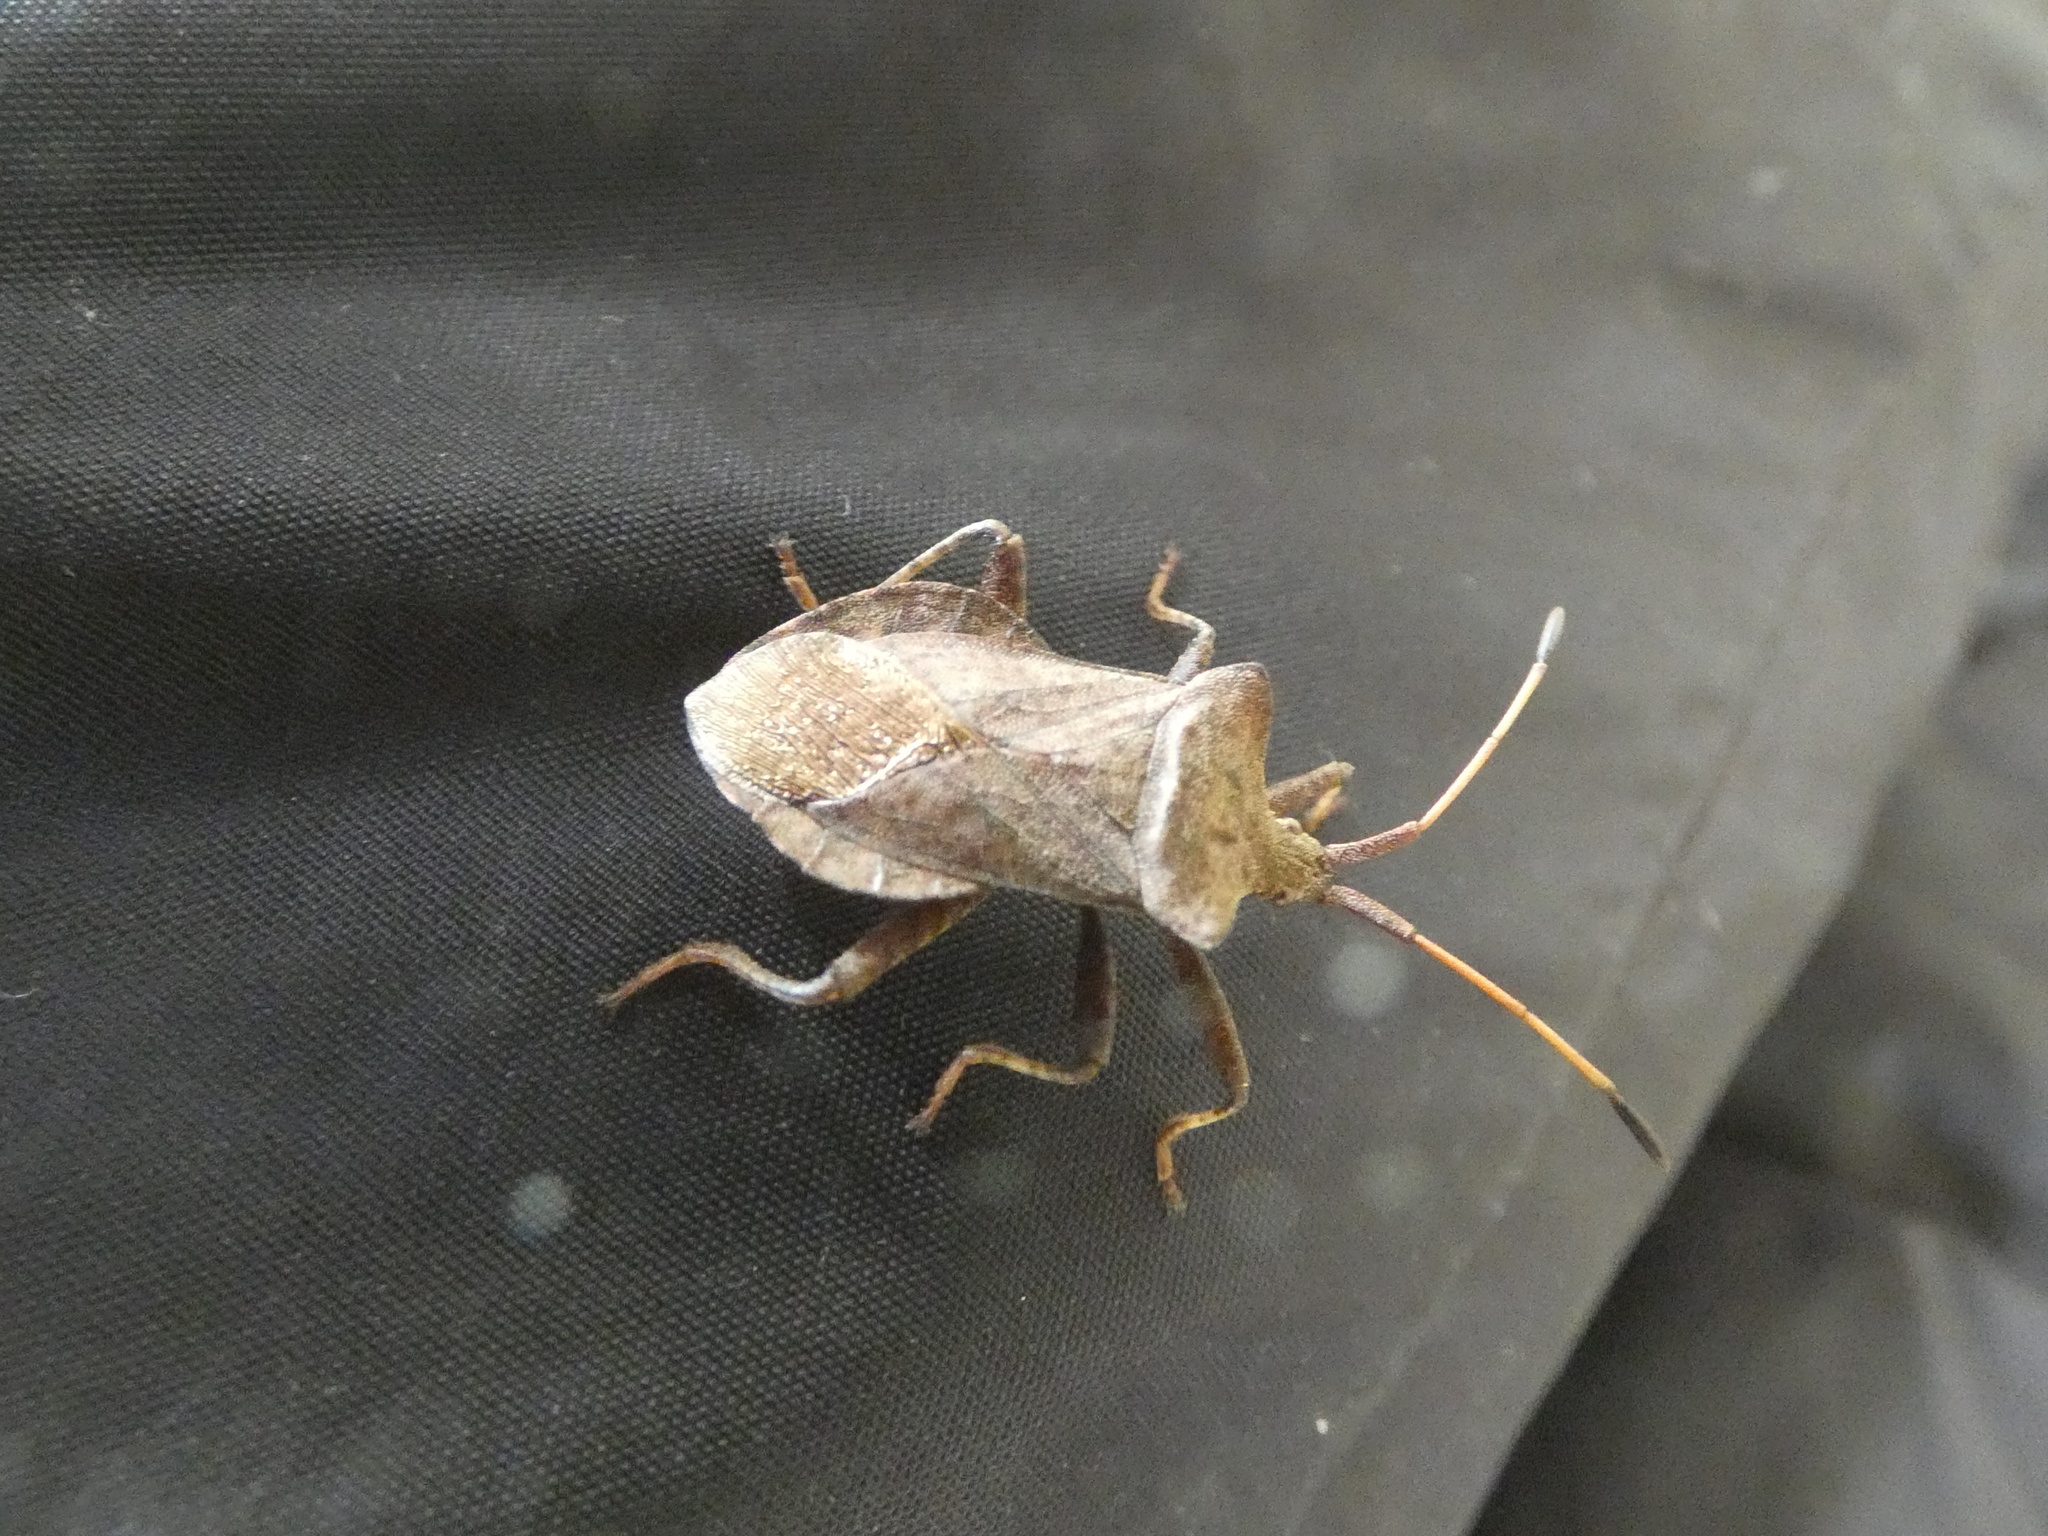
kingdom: Animalia
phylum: Arthropoda
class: Insecta
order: Hemiptera
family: Coreidae
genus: Coreus
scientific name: Coreus marginatus
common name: Dock bug
